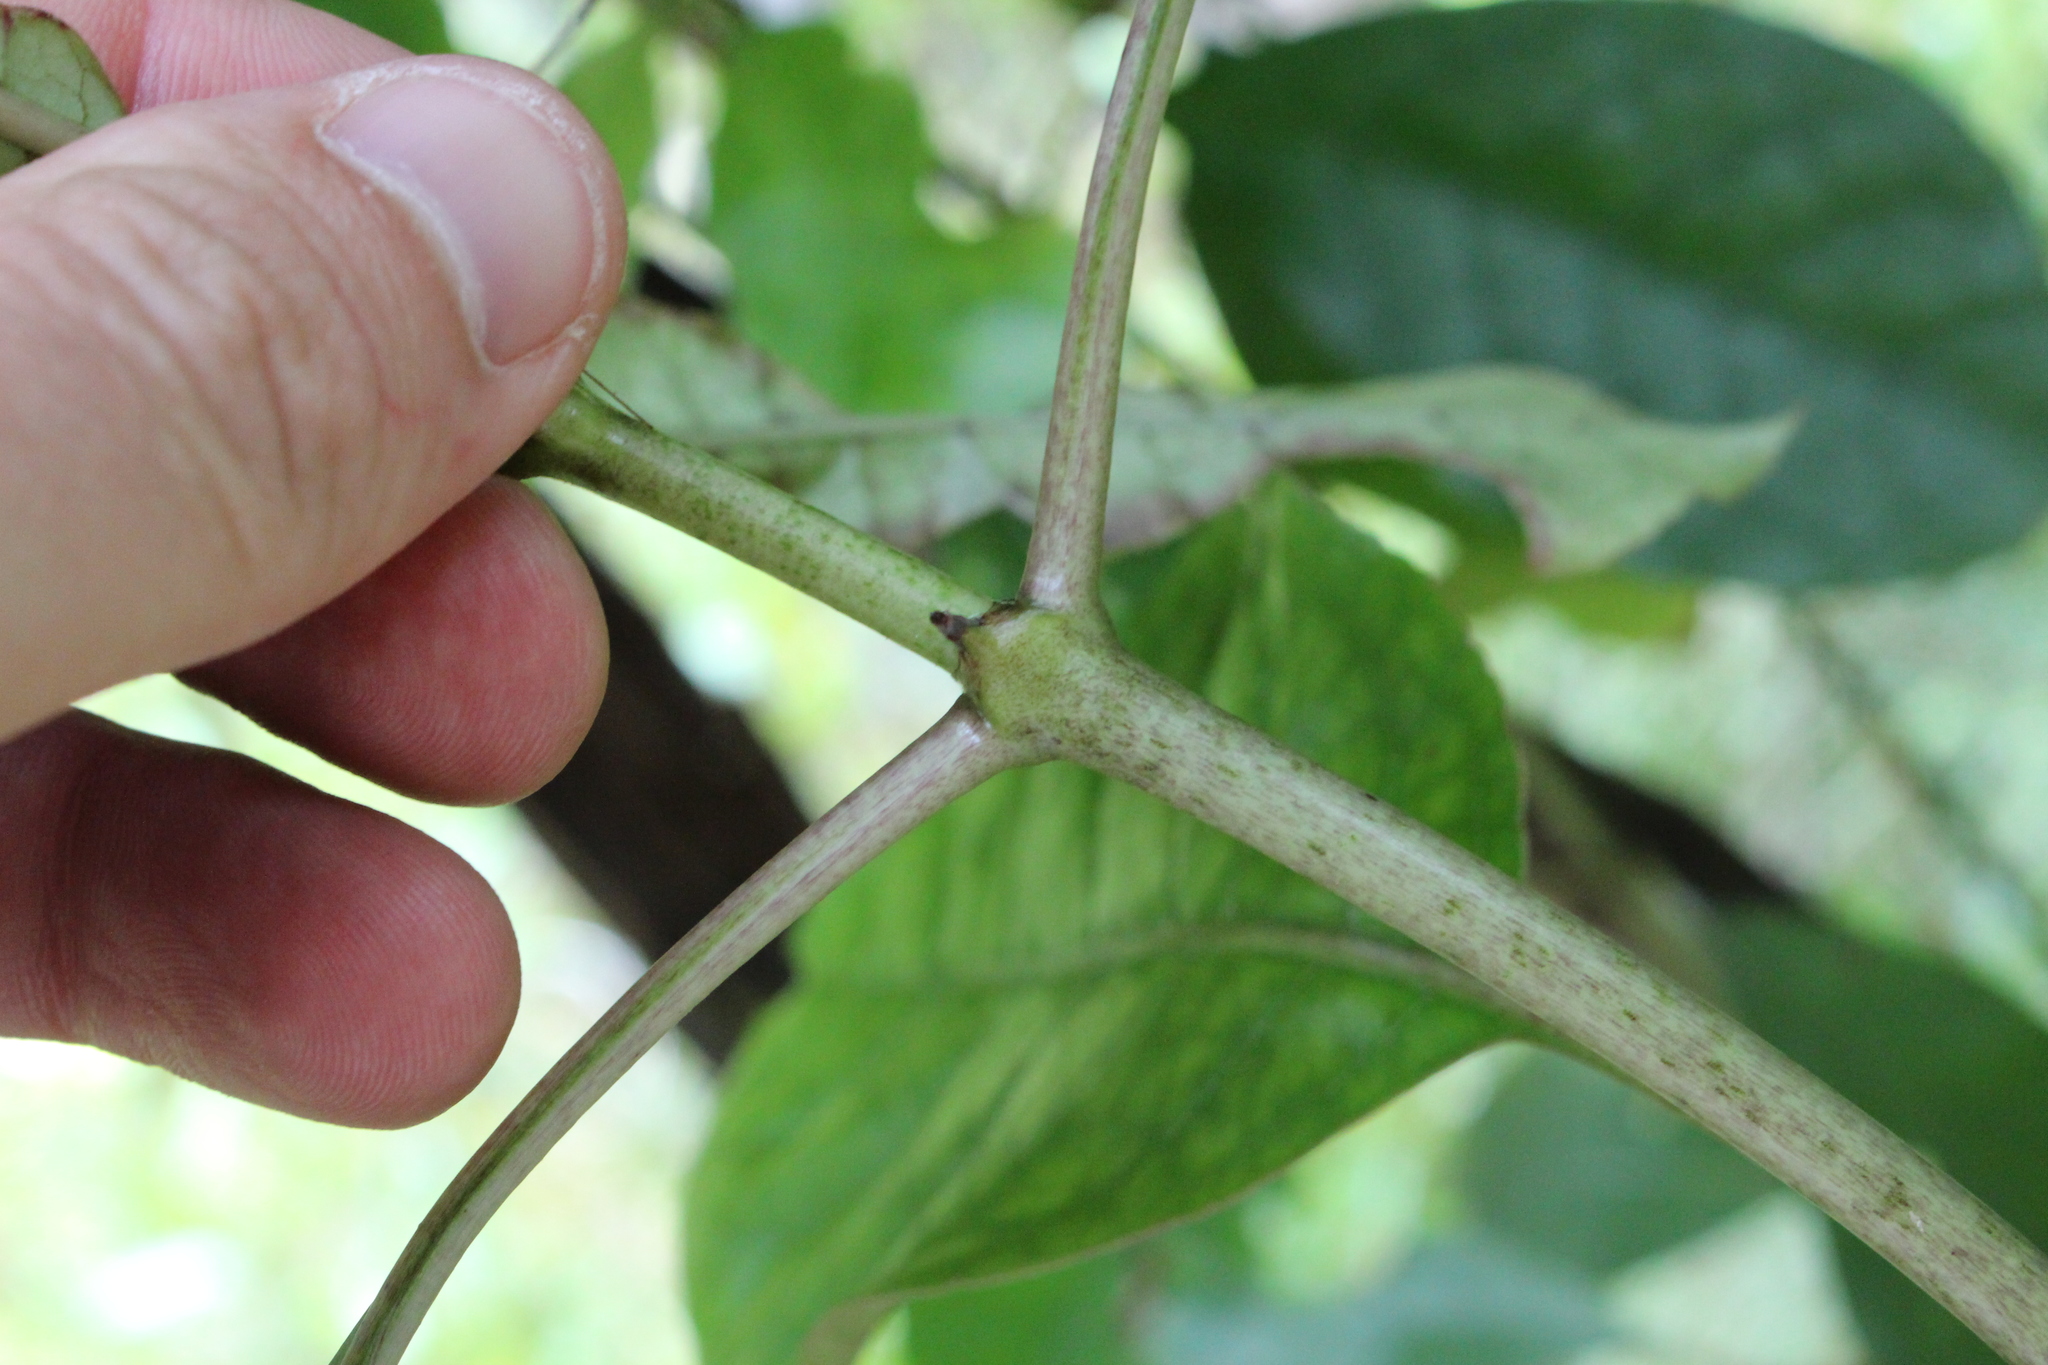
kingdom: Plantae
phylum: Tracheophyta
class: Magnoliopsida
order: Gentianales
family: Rubiaceae
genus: Coprosma
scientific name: Coprosma autumnalis
